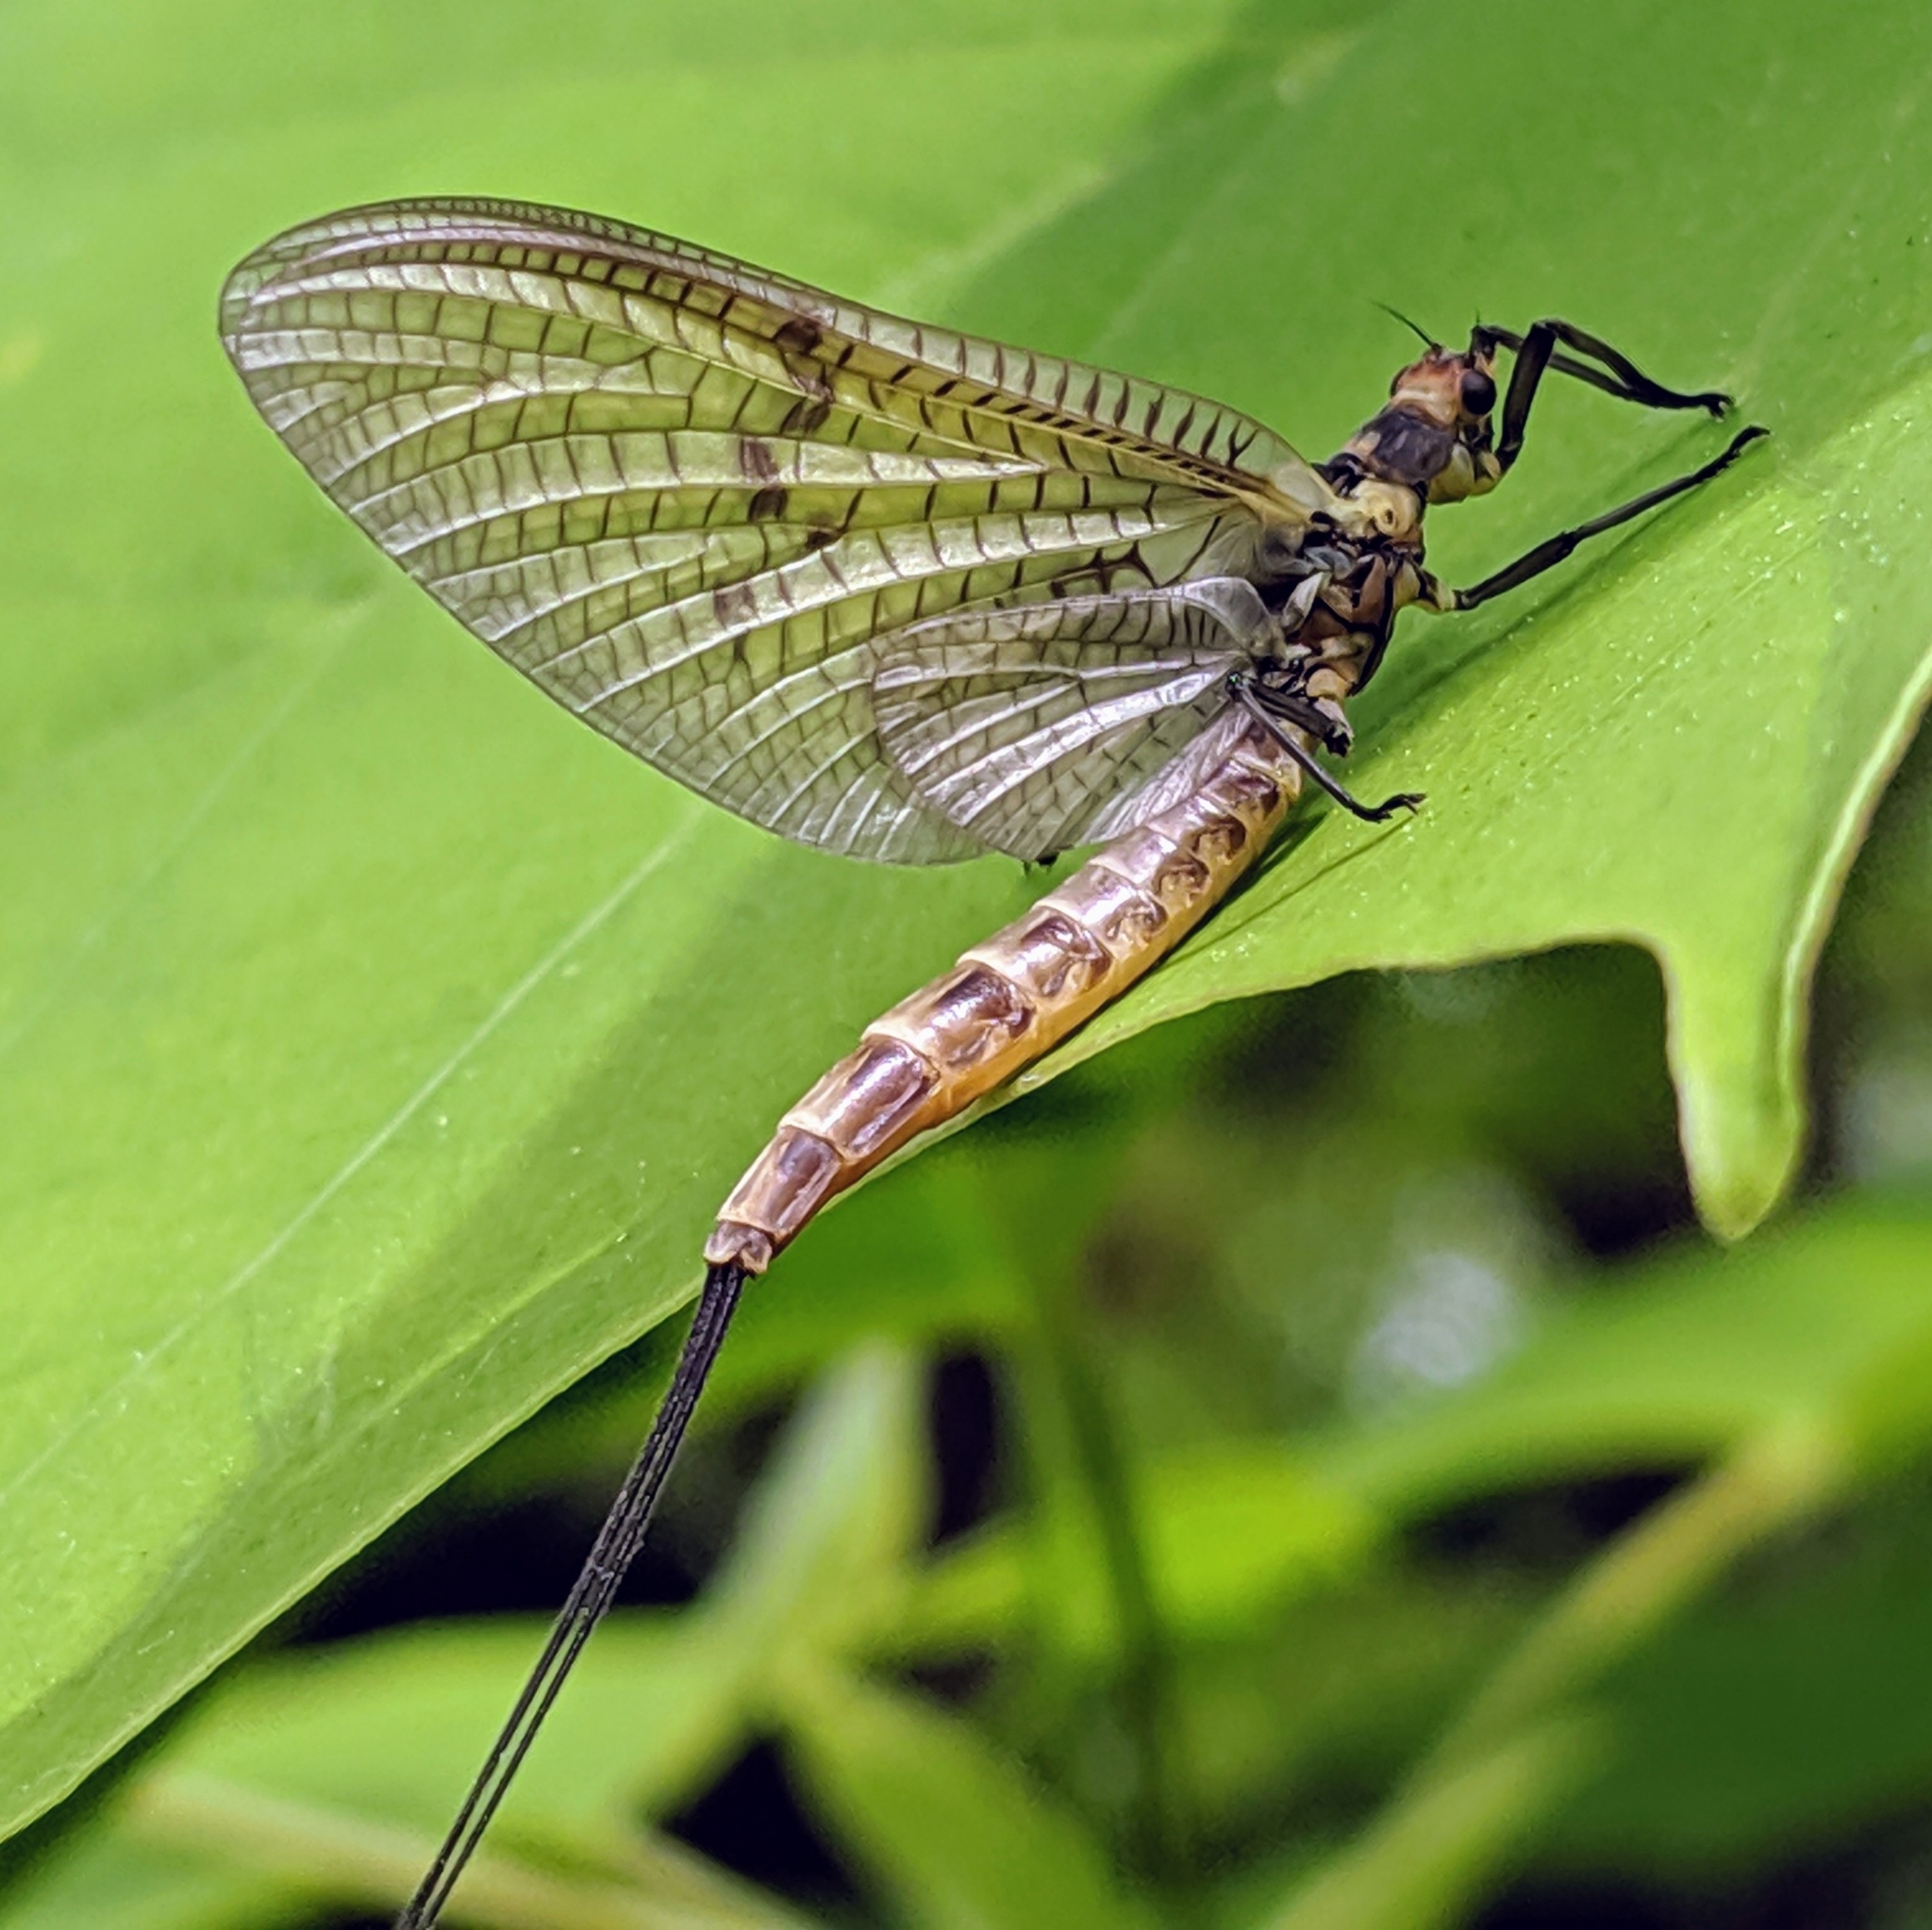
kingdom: Animalia
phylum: Arthropoda
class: Insecta
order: Ephemeroptera
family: Ephemeridae
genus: Ephemera
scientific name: Ephemera danica
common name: Green dun
